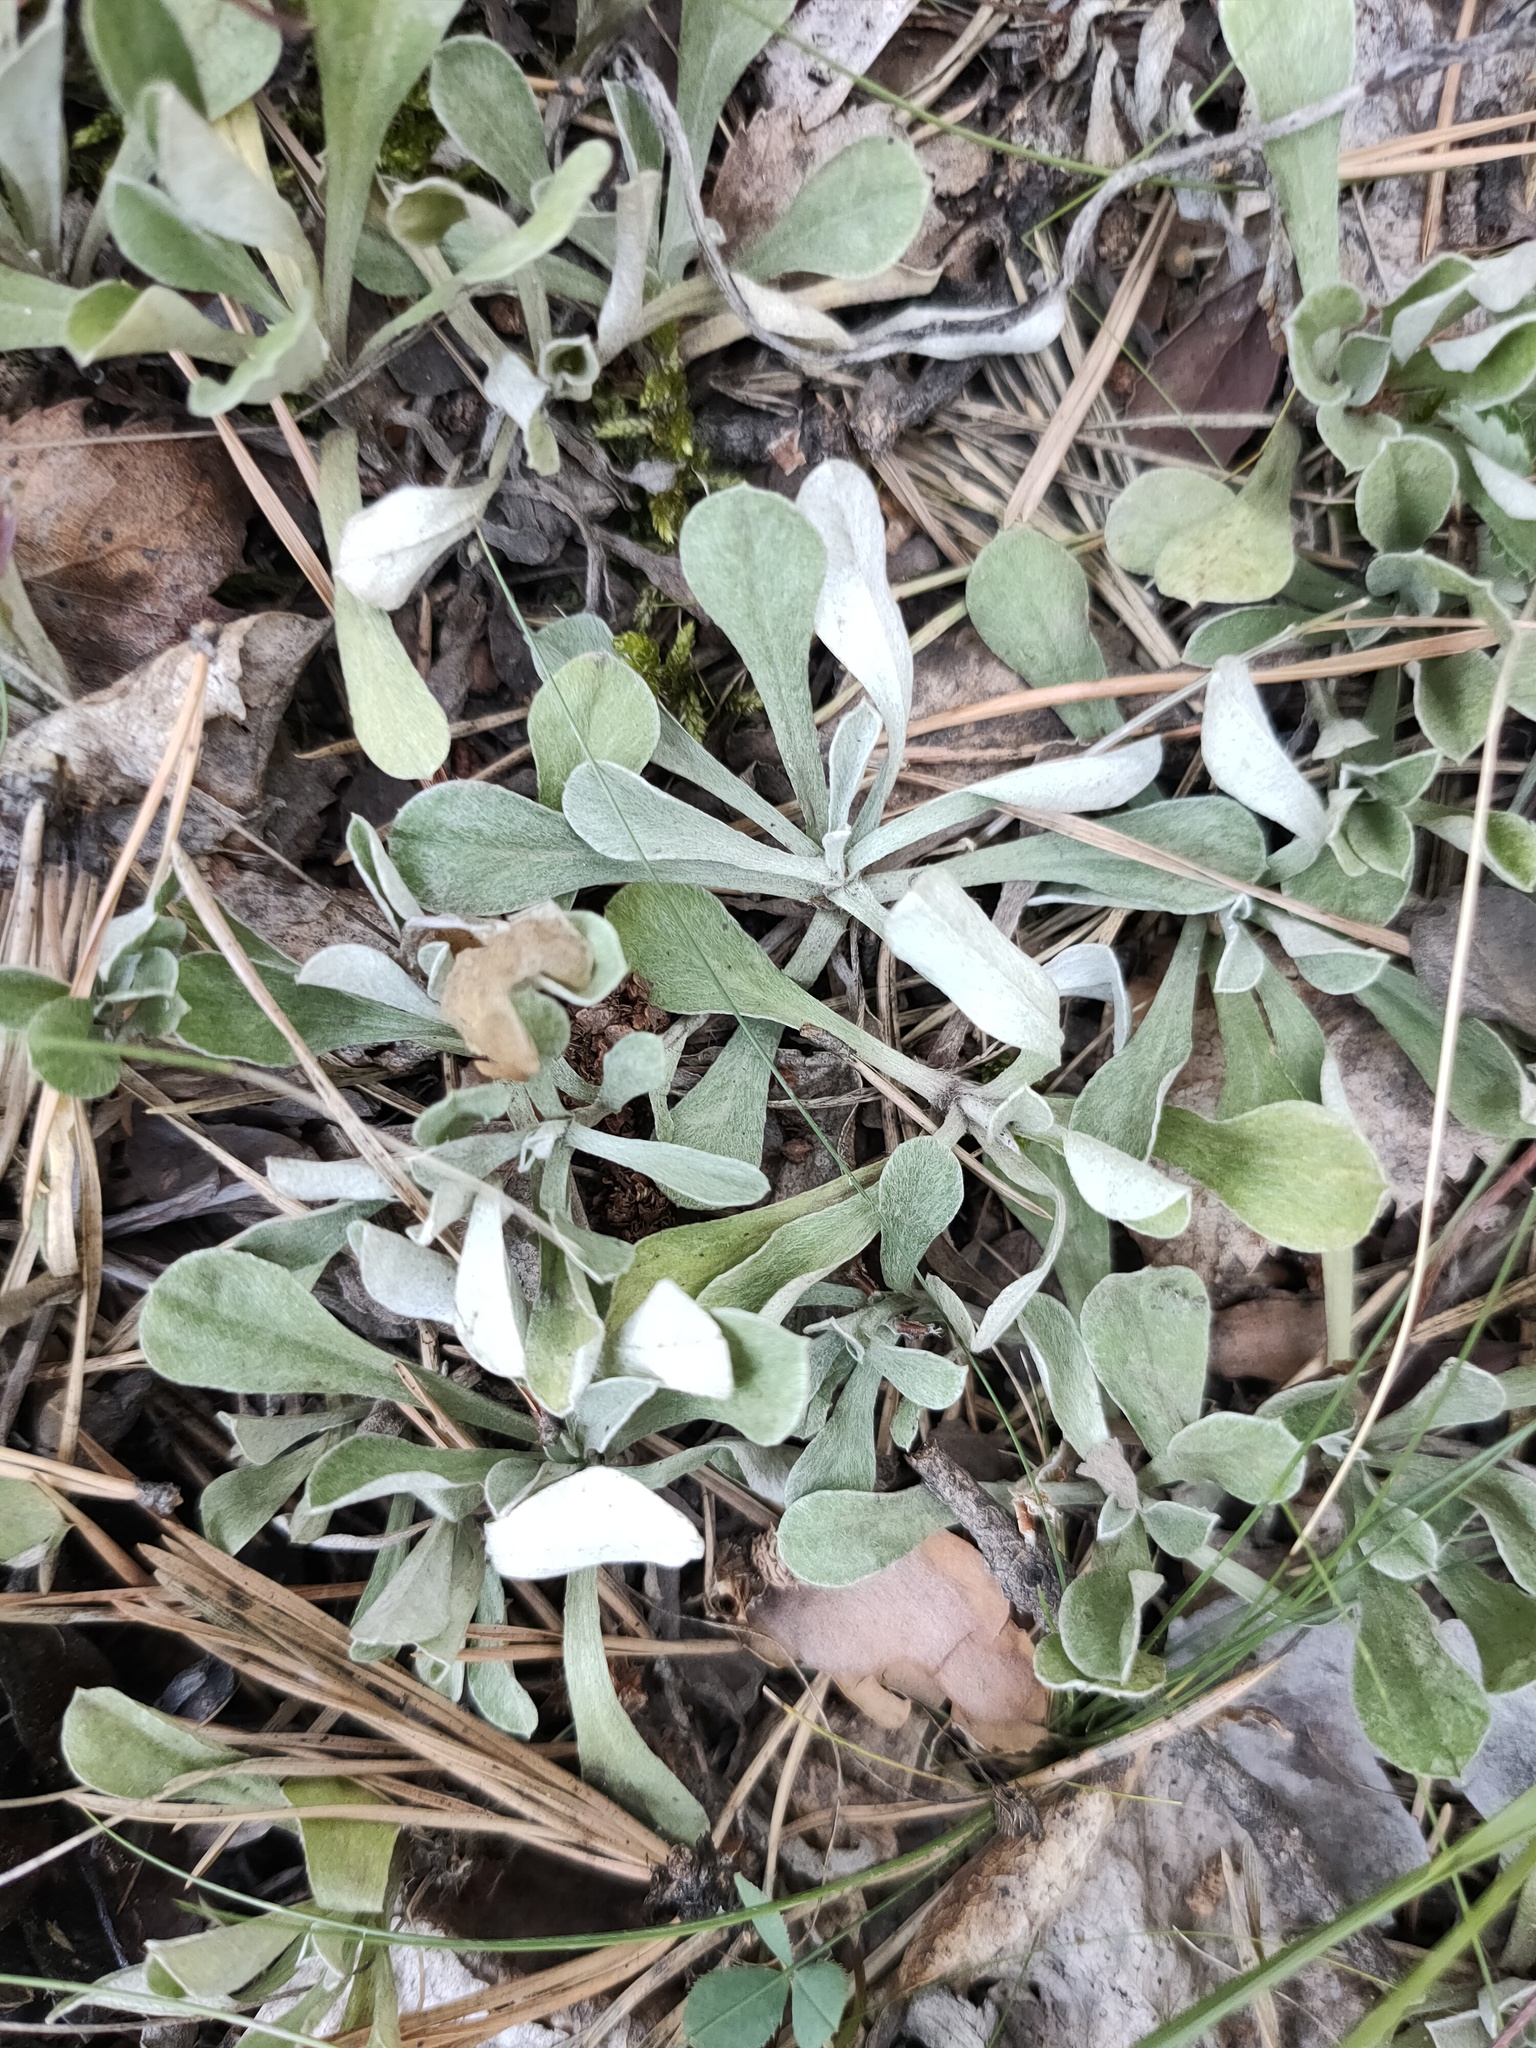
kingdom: Plantae
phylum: Tracheophyta
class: Magnoliopsida
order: Asterales
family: Asteraceae
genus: Antennaria
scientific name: Antennaria dioica
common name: Mountain everlasting
